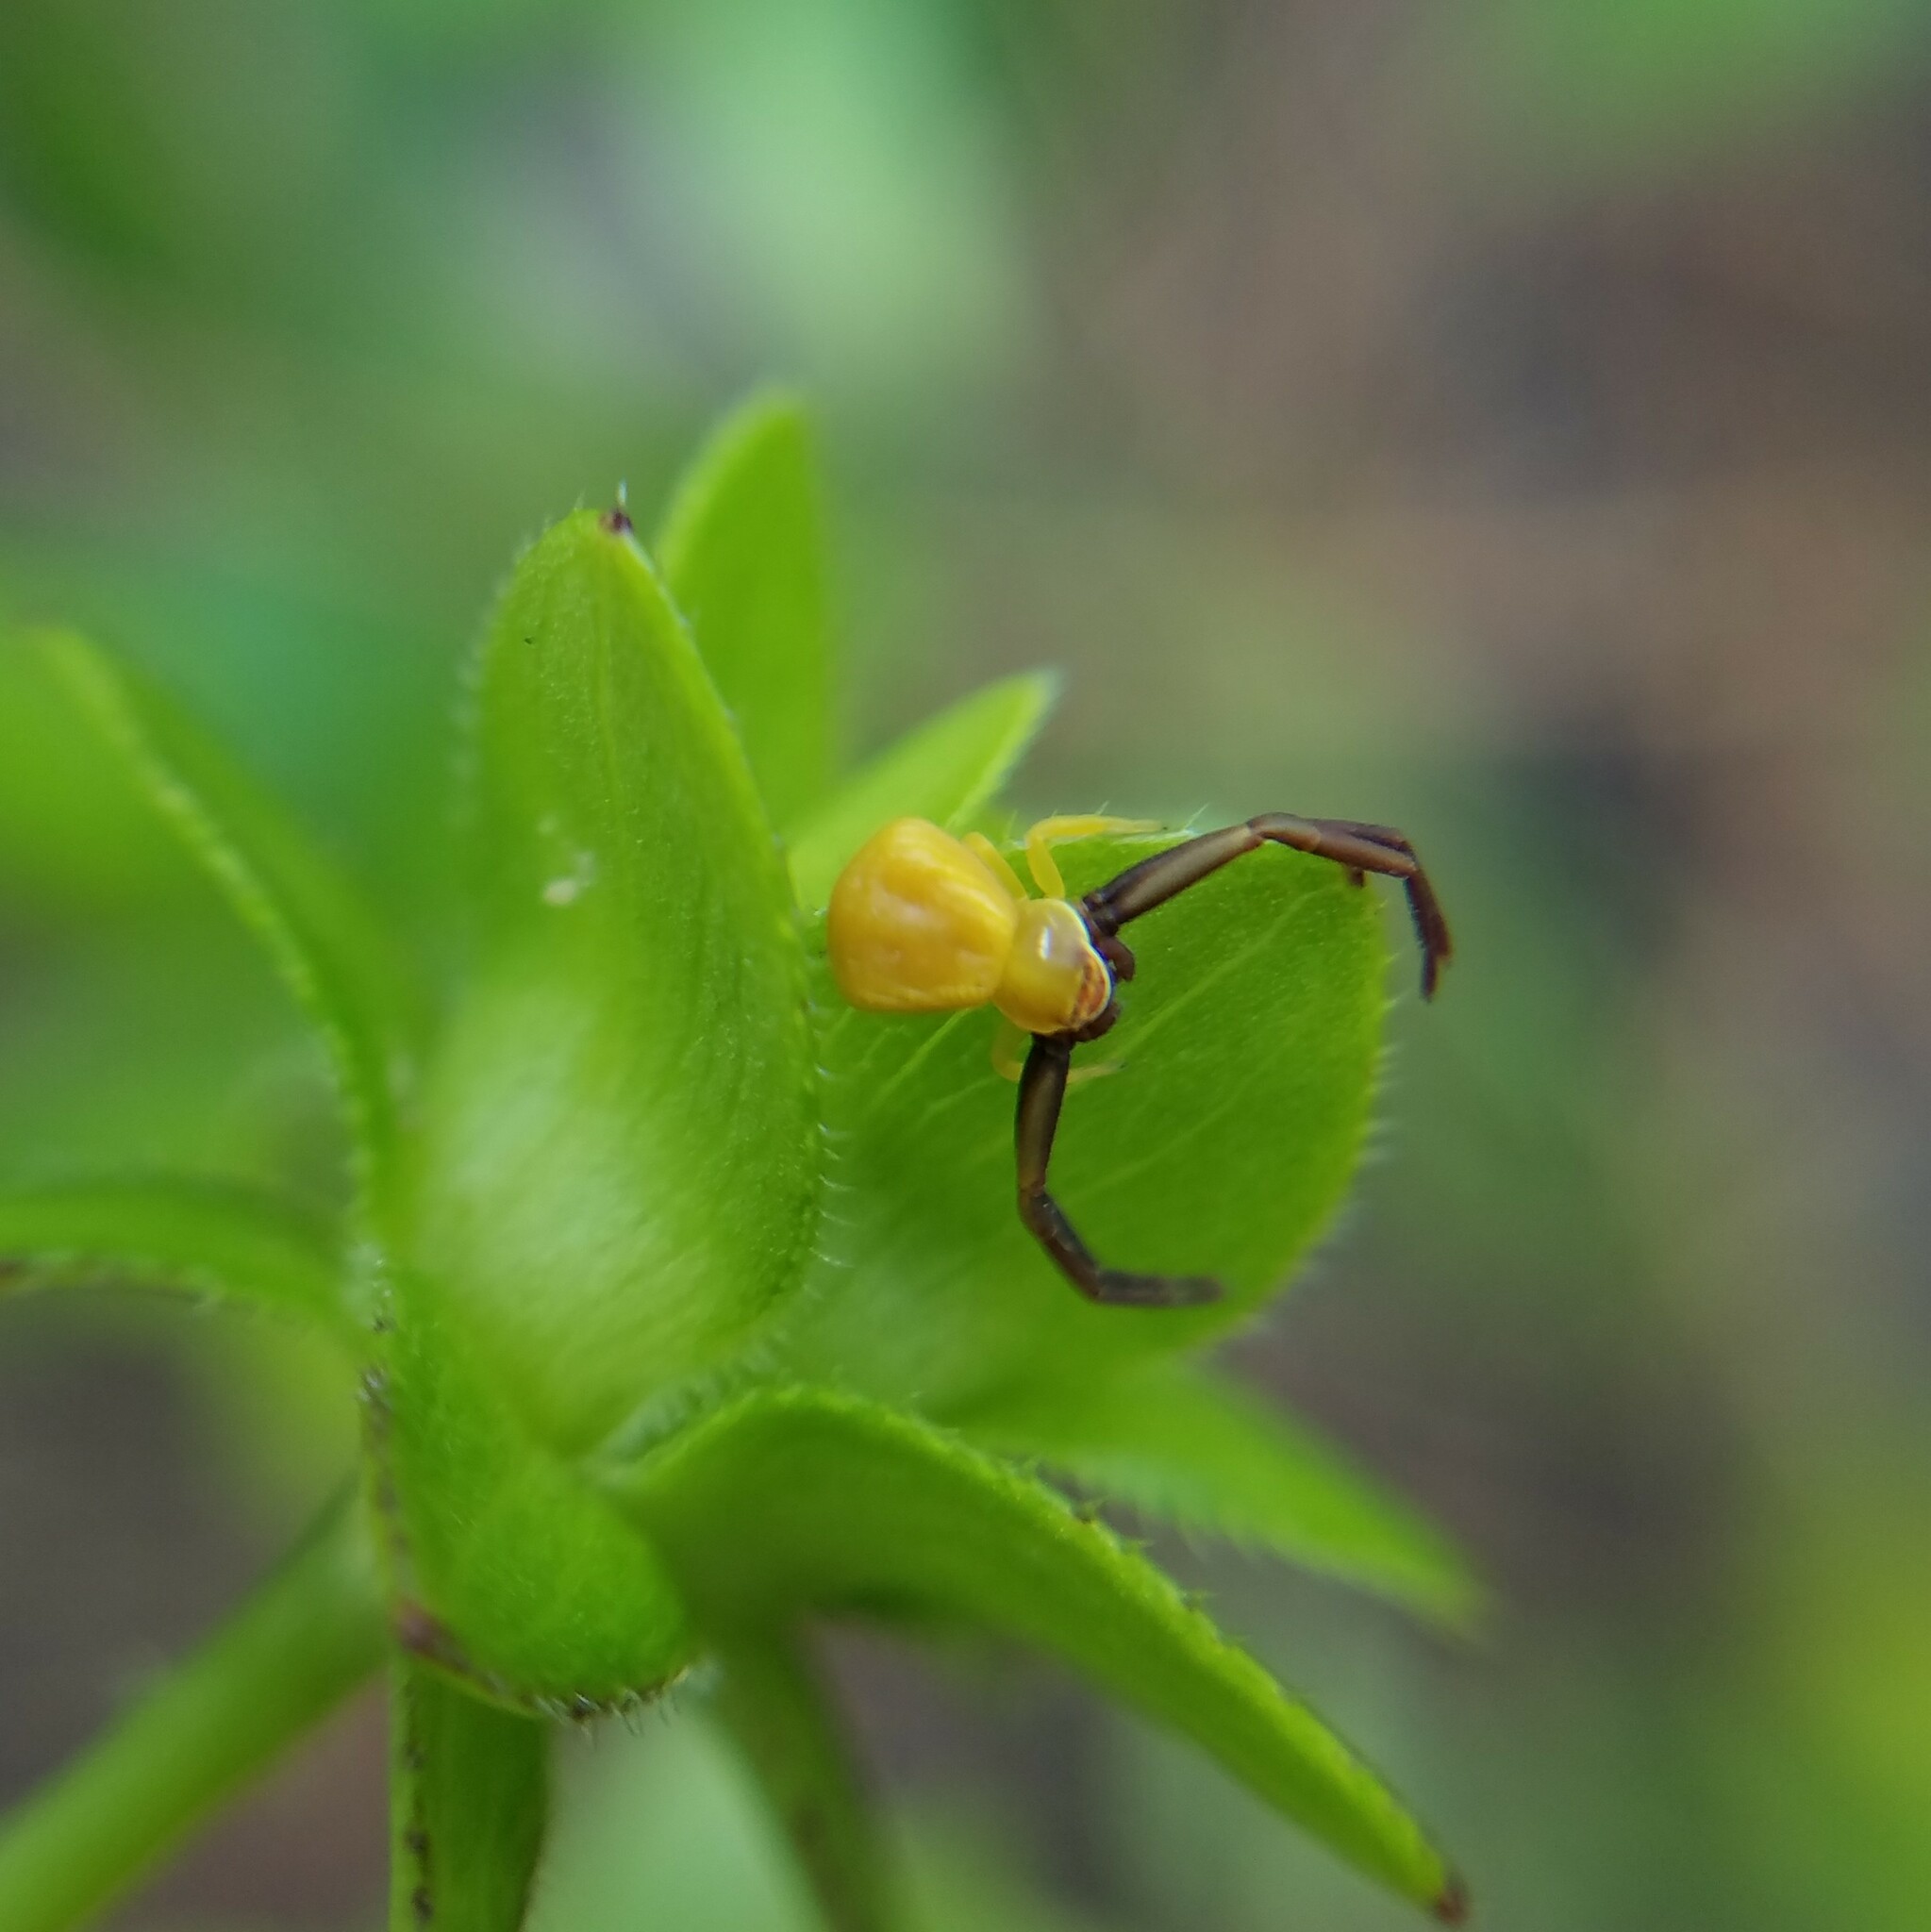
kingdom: Animalia
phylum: Arthropoda
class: Arachnida
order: Araneae
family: Thomisidae
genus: Misumenoides
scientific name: Misumenoides formosipes
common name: White-banded crab spider
